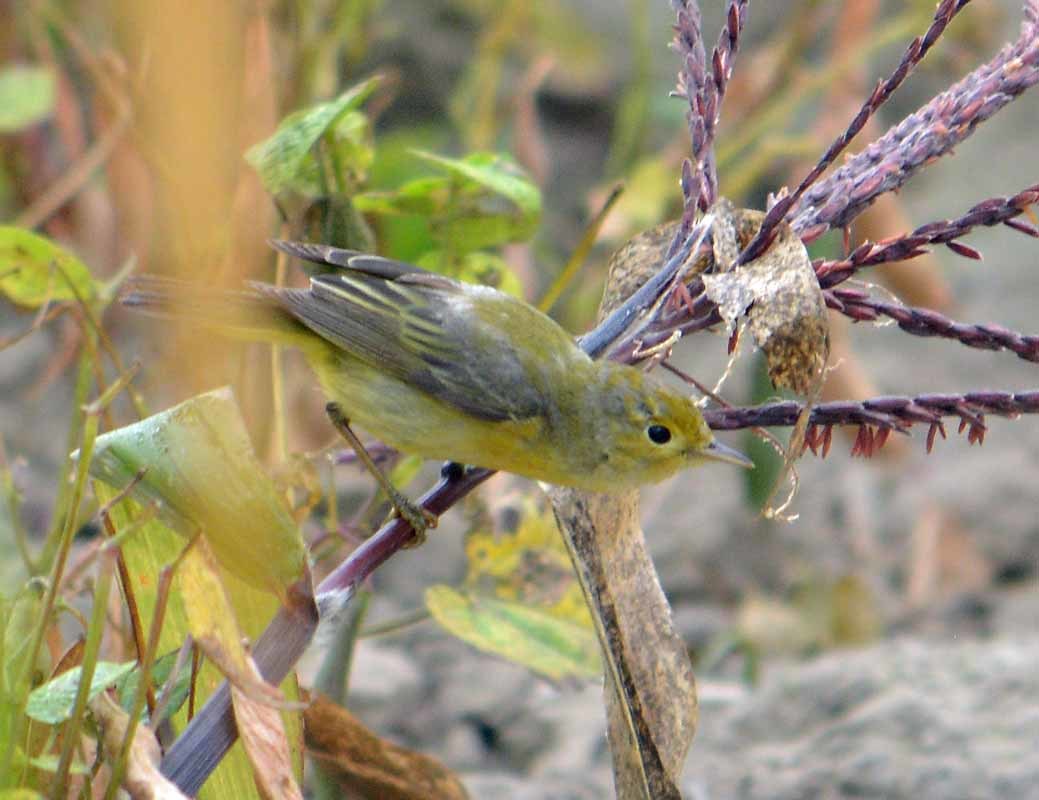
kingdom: Animalia
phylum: Chordata
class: Aves
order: Passeriformes
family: Parulidae
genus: Setophaga
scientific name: Setophaga petechia
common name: Yellow warbler
